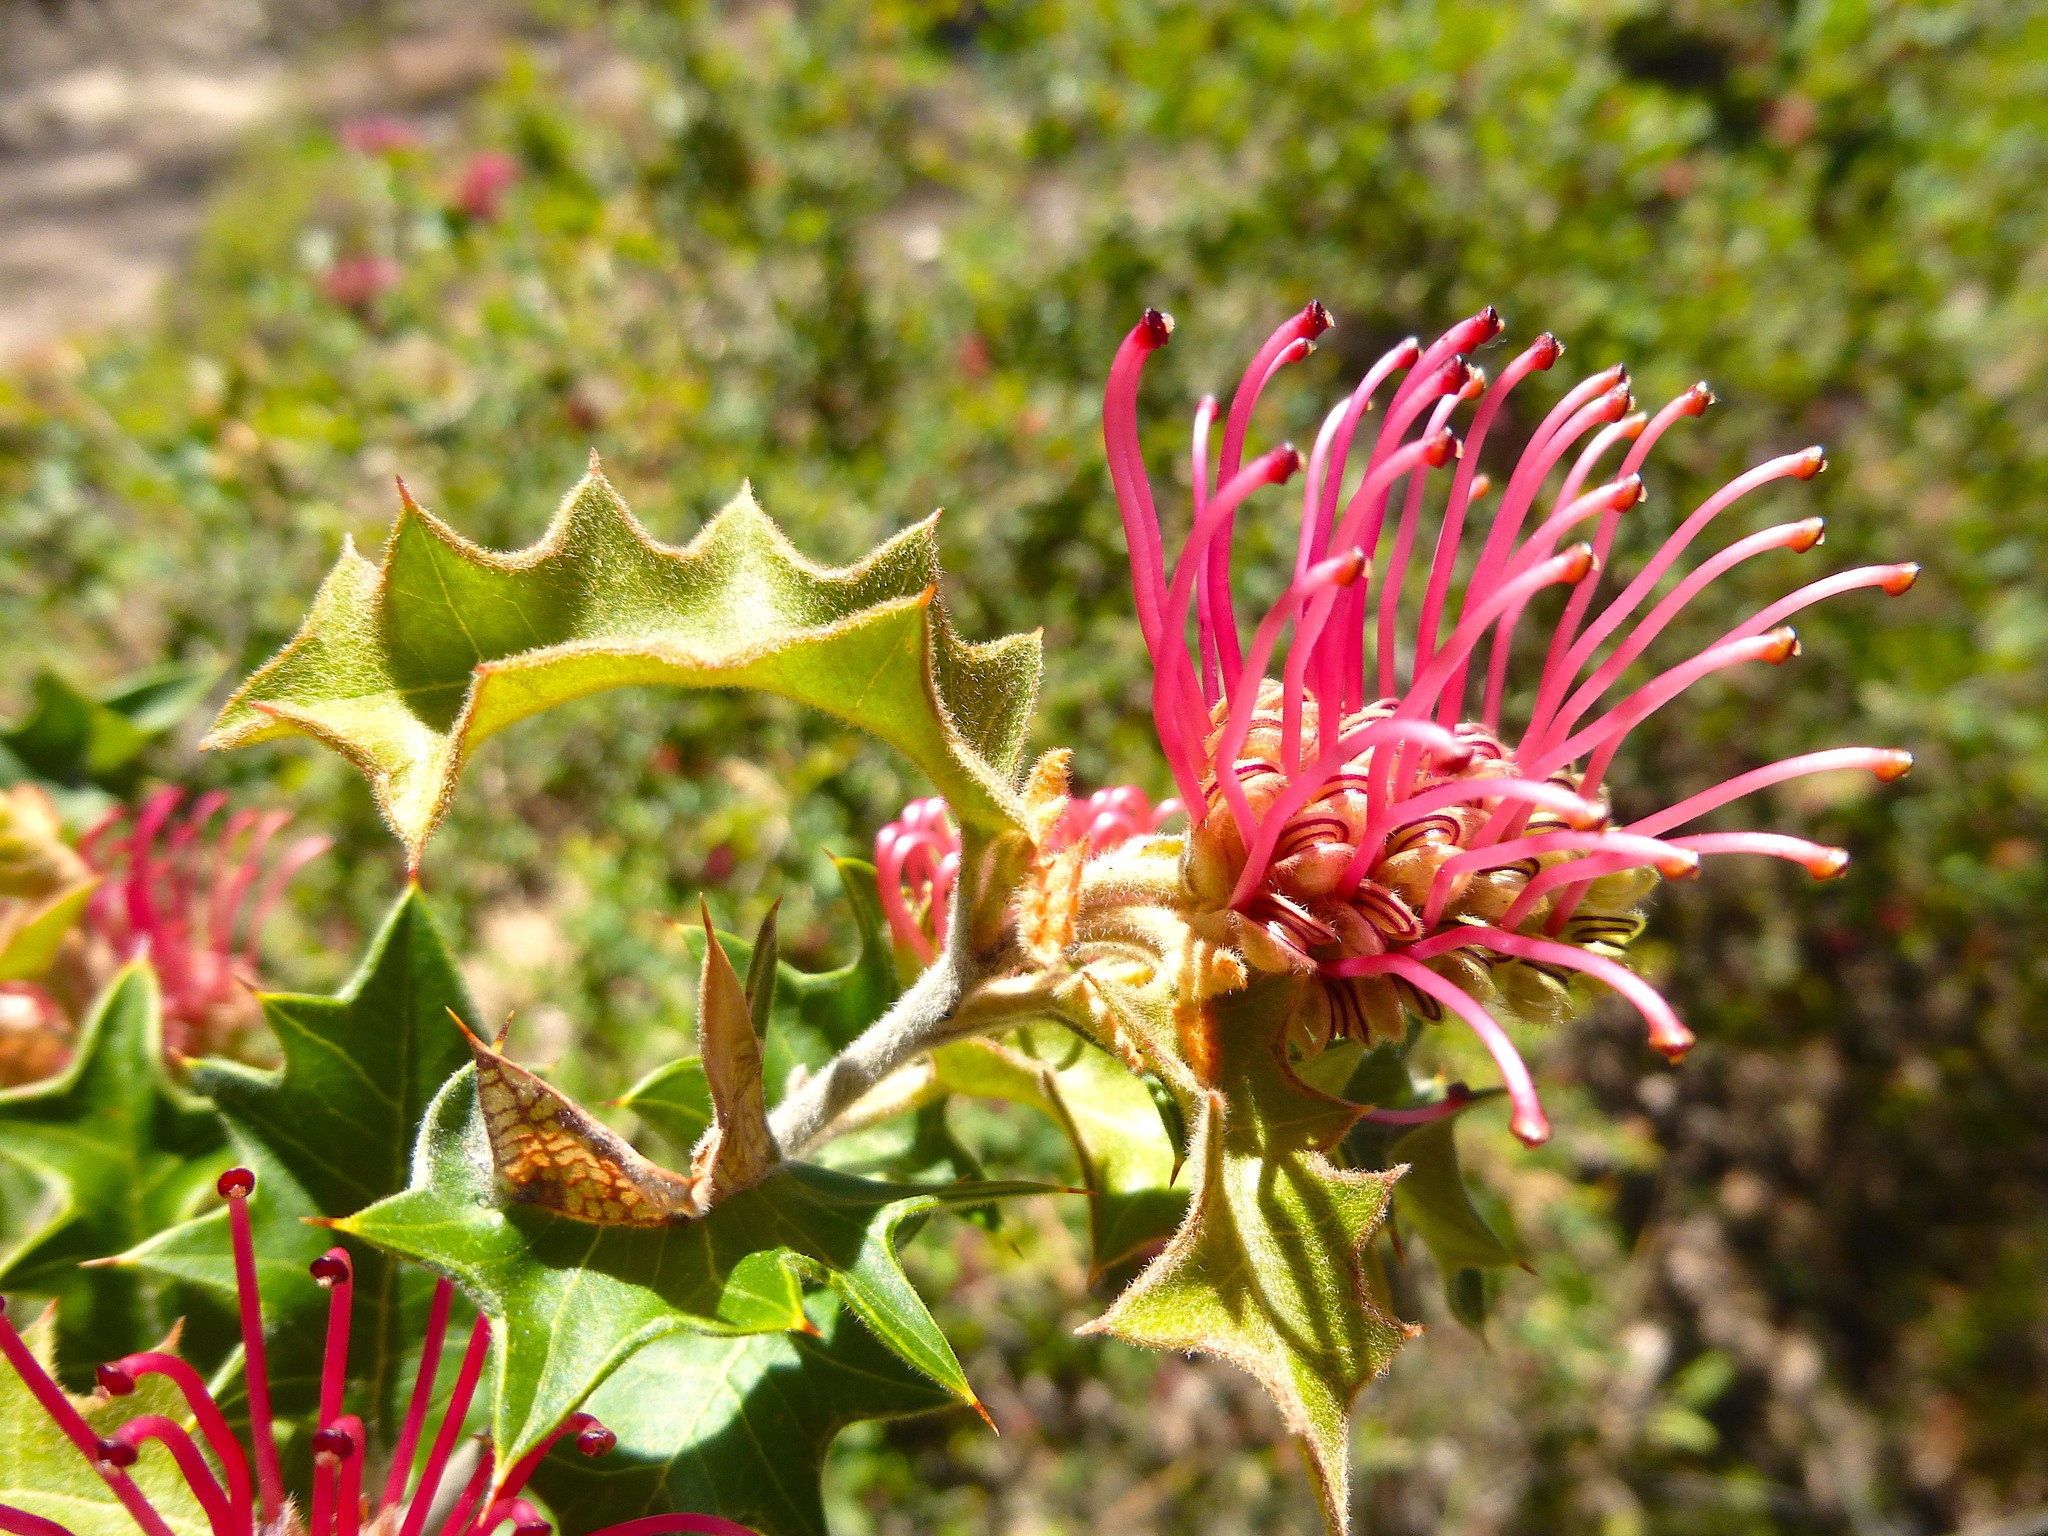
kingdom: Plantae
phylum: Tracheophyta
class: Magnoliopsida
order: Proteales
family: Proteaceae
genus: Grevillea
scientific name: Grevillea aquifolium
